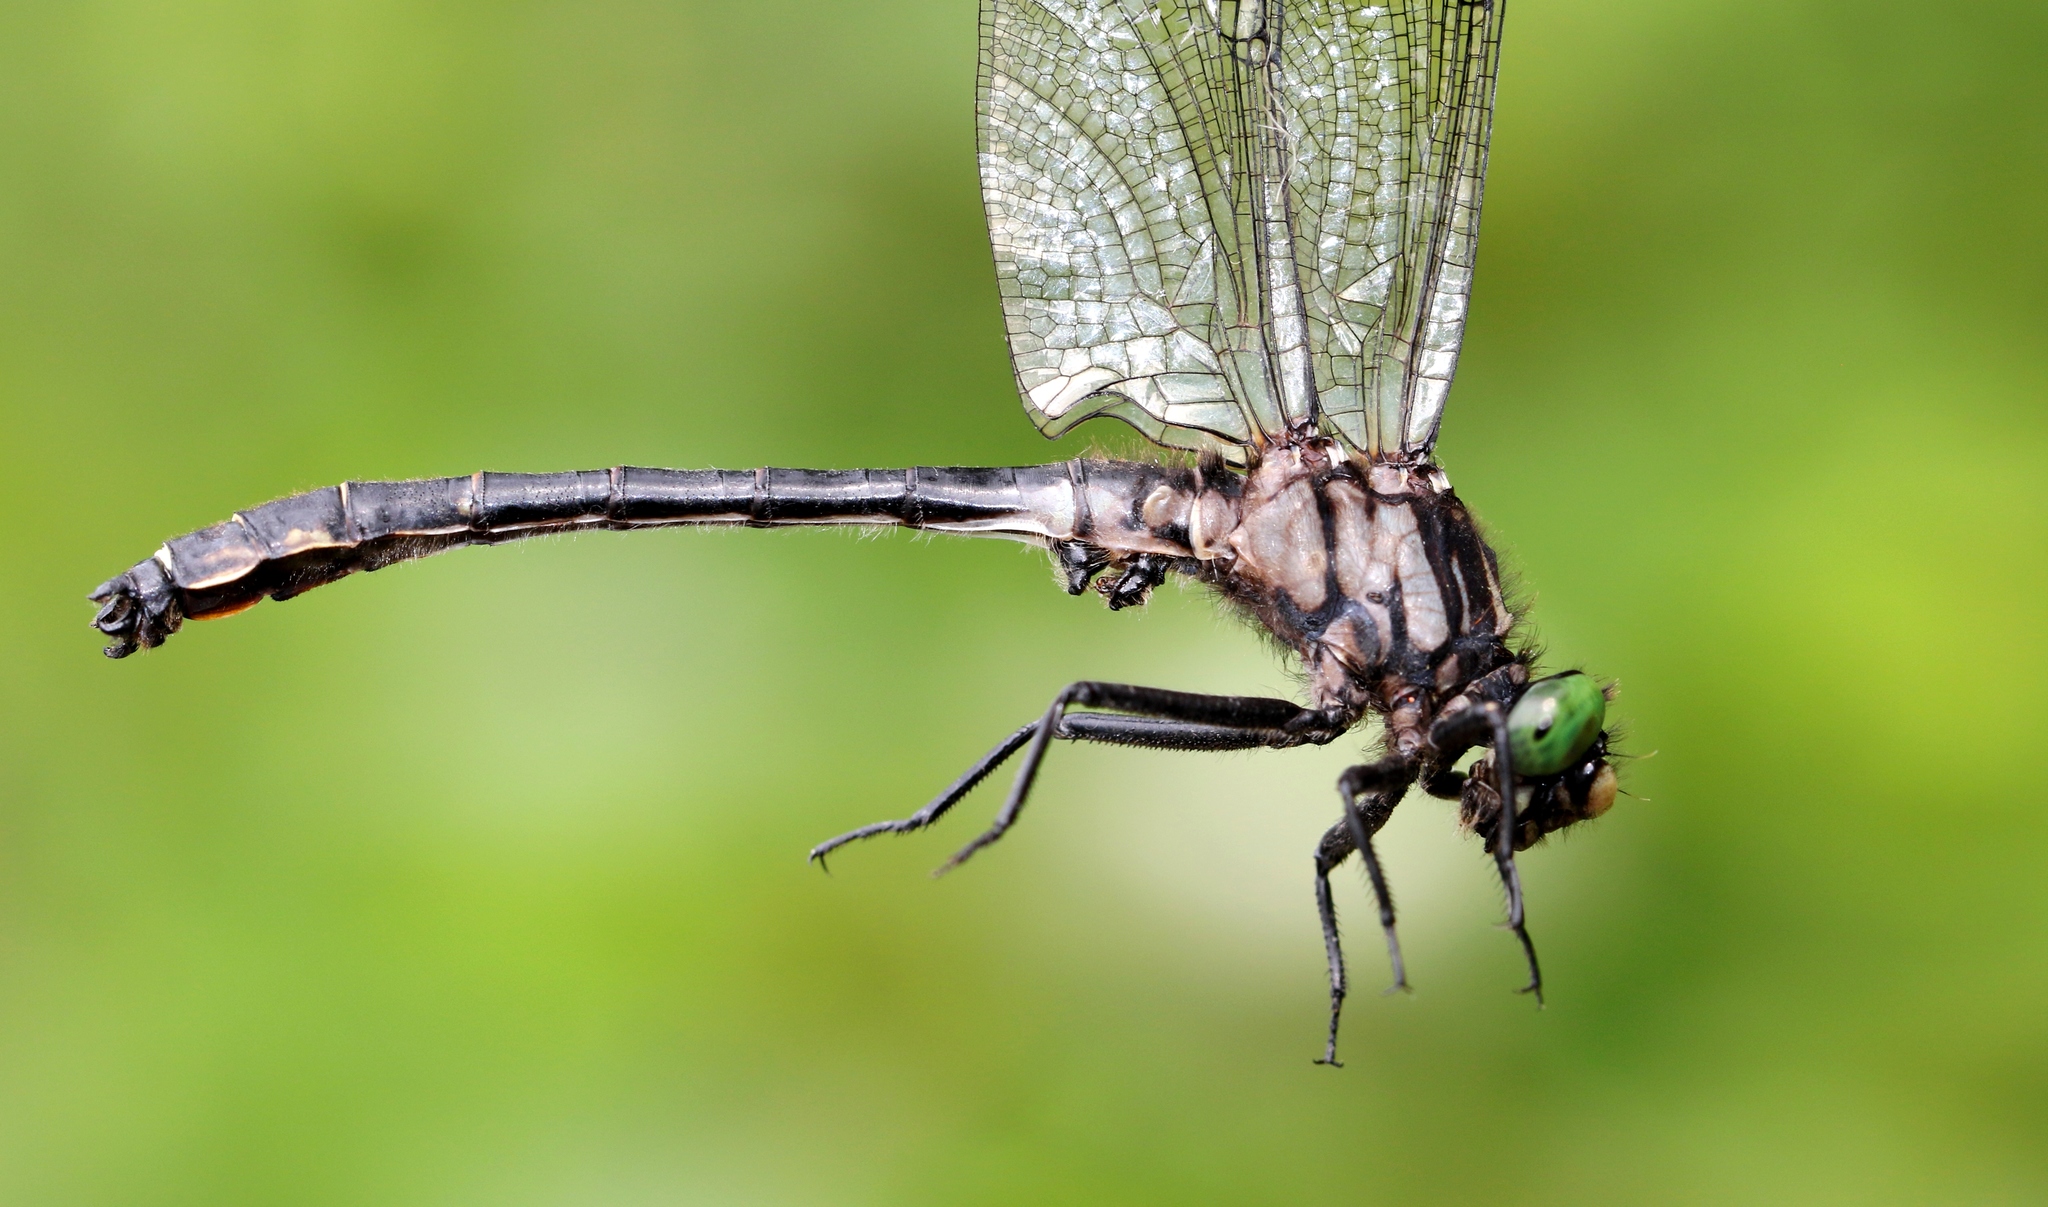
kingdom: Animalia
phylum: Arthropoda
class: Insecta
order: Odonata
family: Gomphidae
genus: Hylogomphus
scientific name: Hylogomphus adelphus
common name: Mustached clubtail
